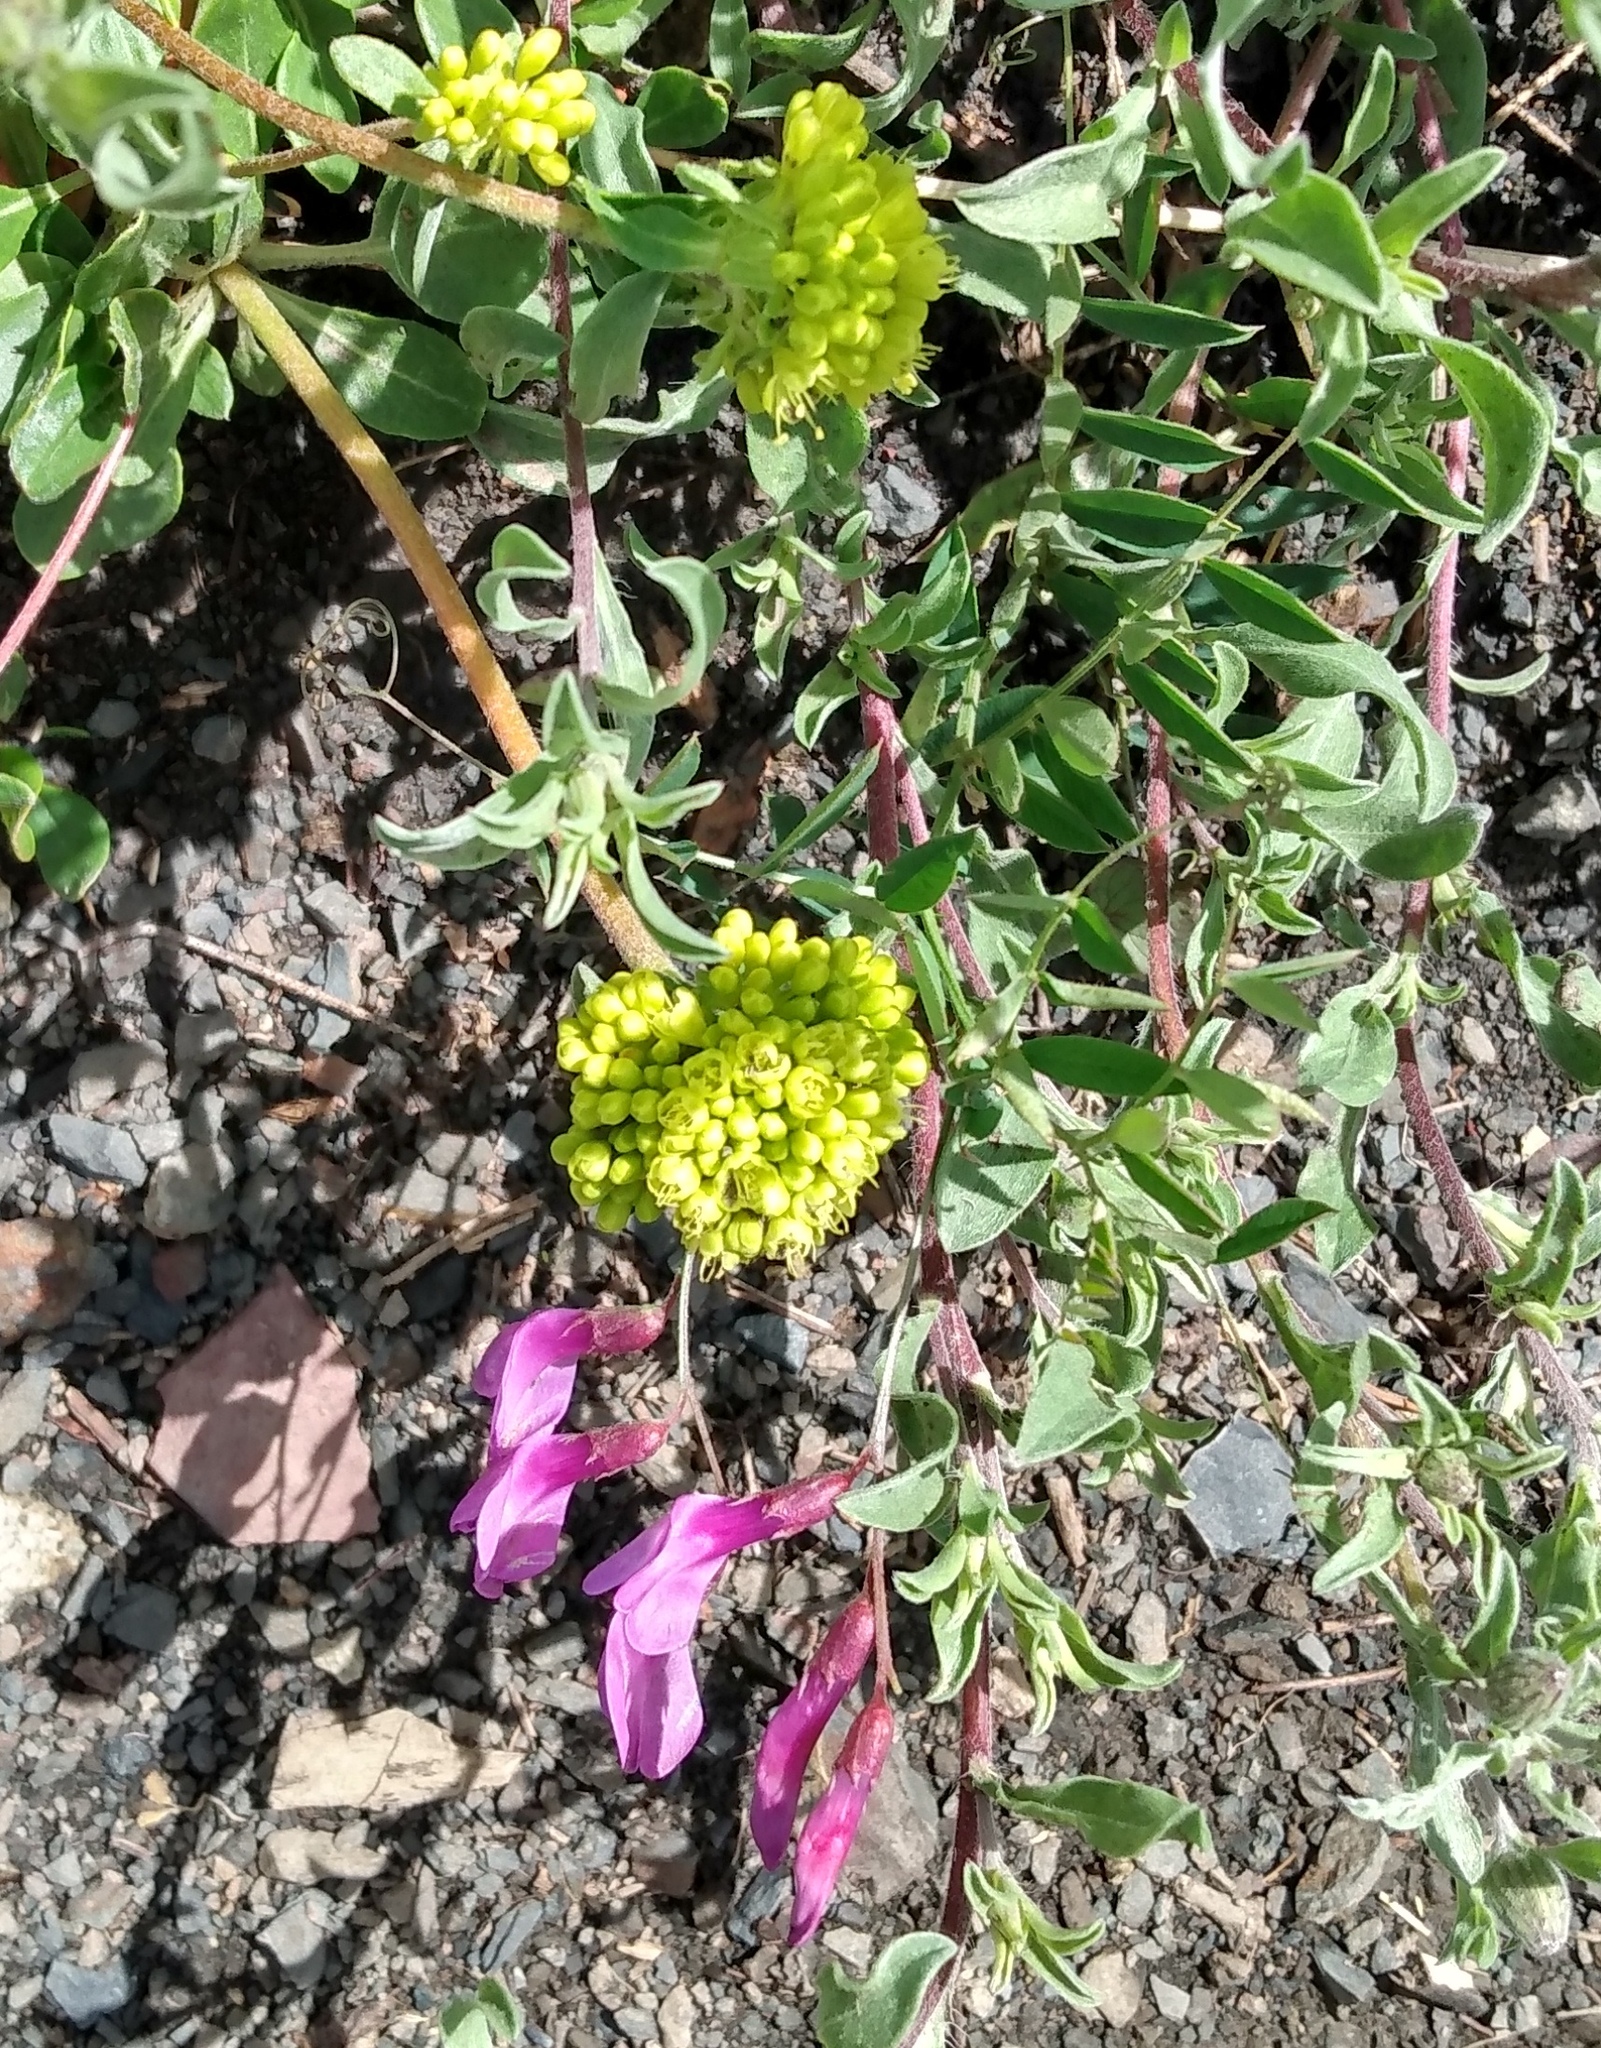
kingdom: Plantae
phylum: Tracheophyta
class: Magnoliopsida
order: Fabales
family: Fabaceae
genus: Vicia
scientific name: Vicia americana
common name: American vetch
